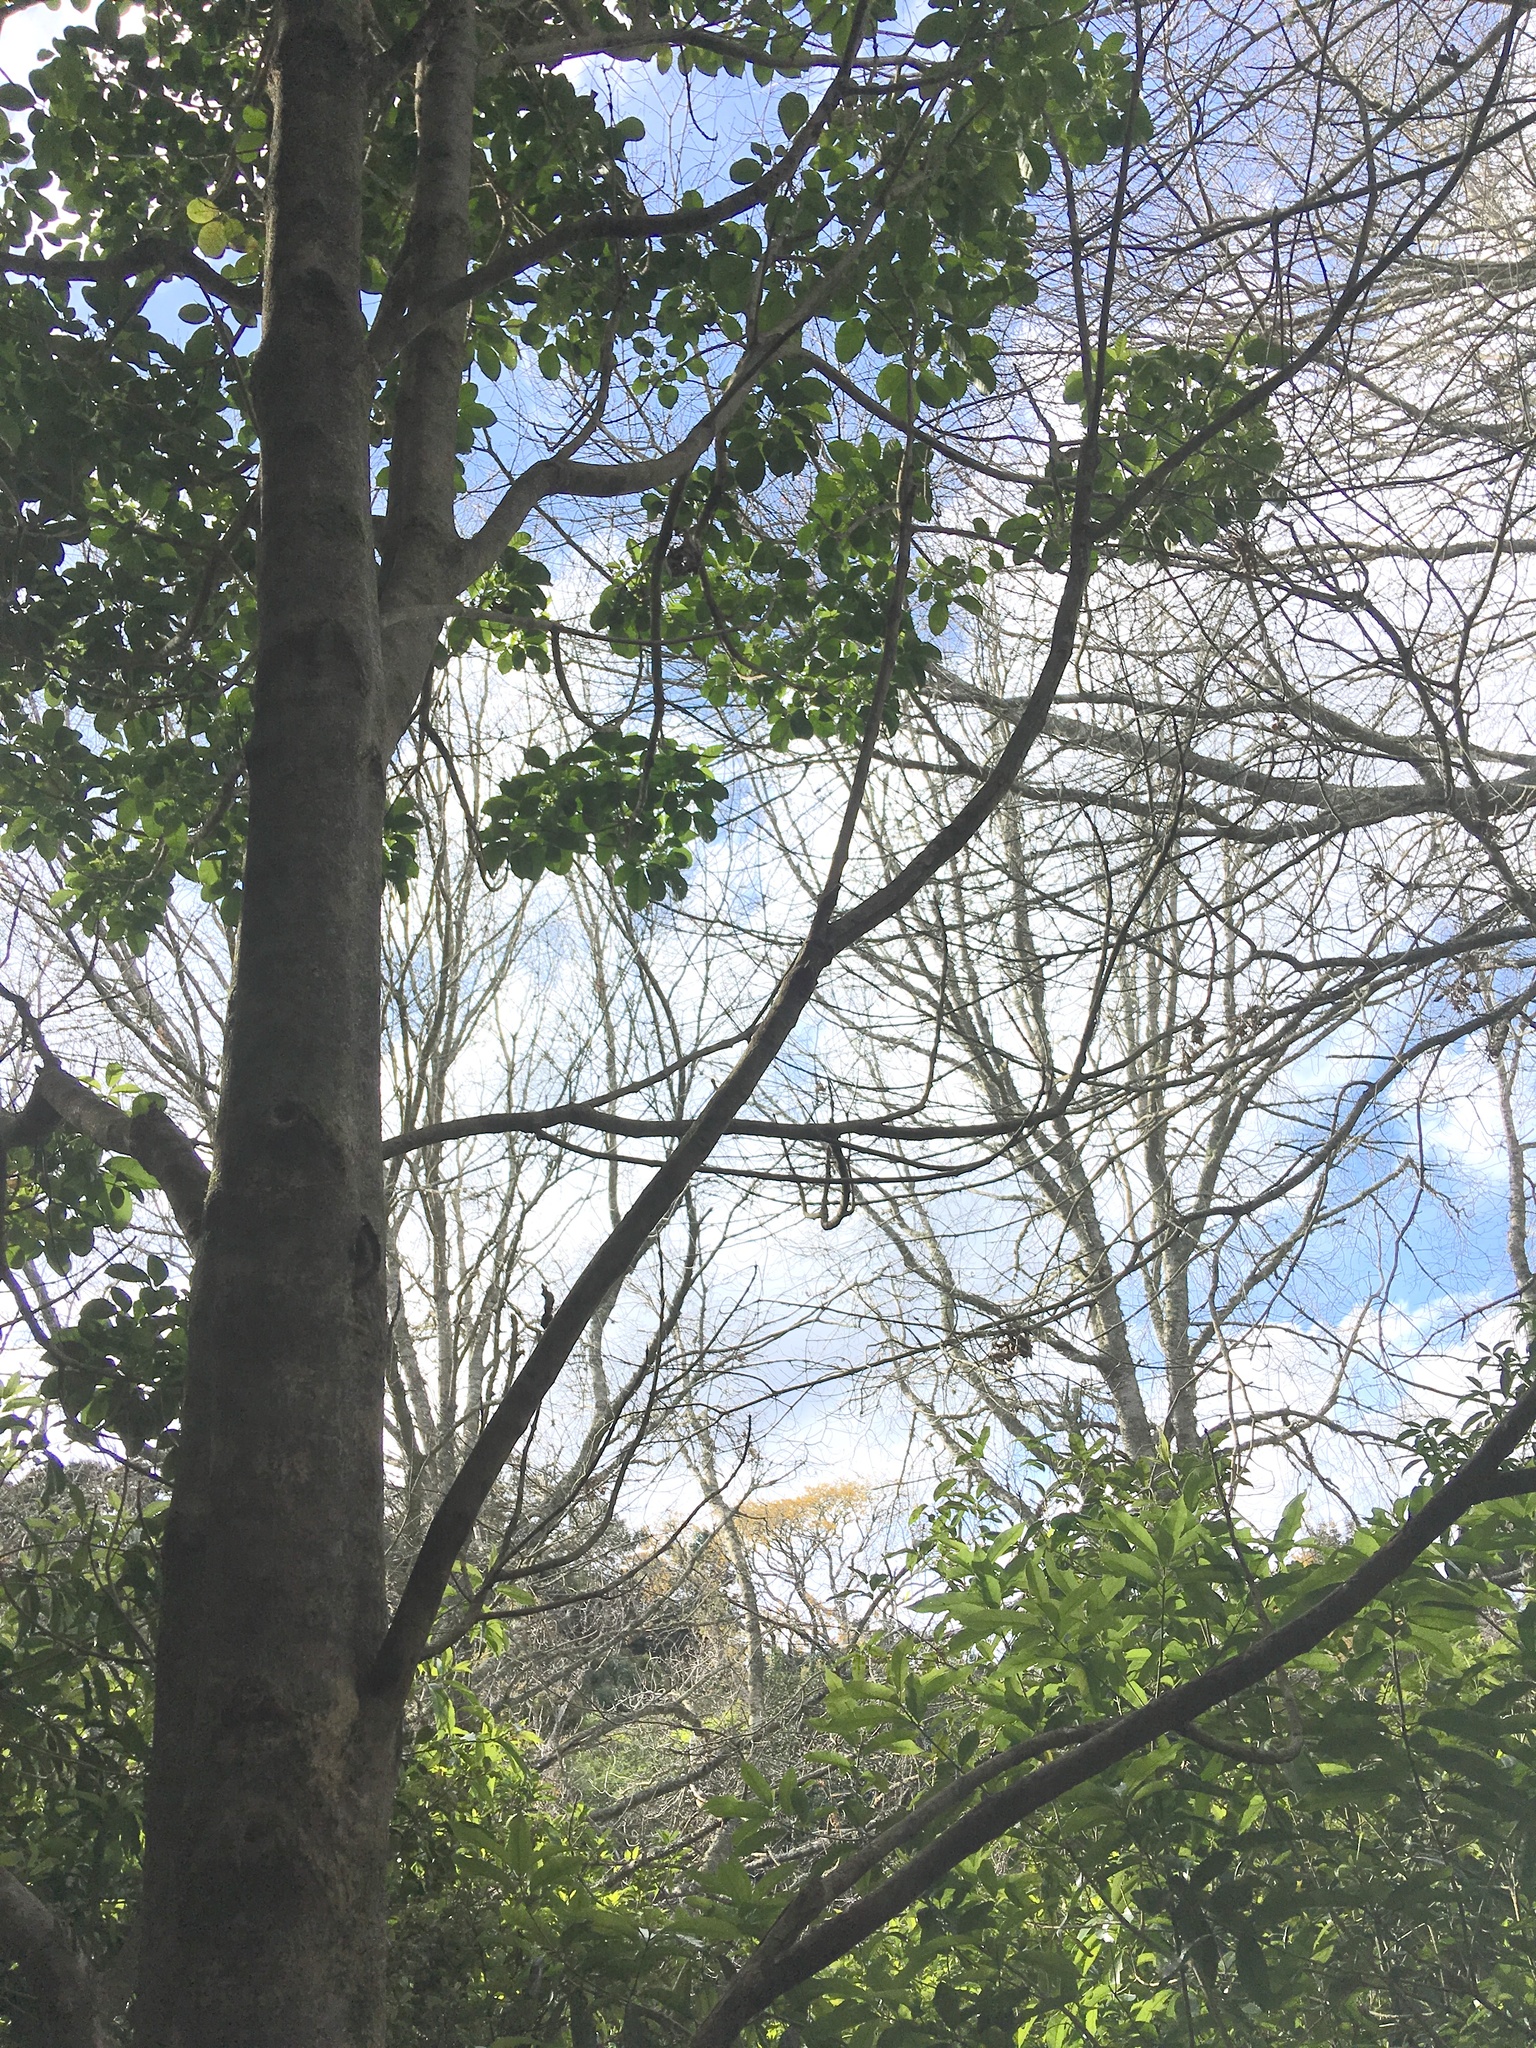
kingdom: Plantae
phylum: Tracheophyta
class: Magnoliopsida
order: Cucurbitales
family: Corynocarpaceae
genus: Corynocarpus
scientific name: Corynocarpus laevigatus
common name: New zealand laurel
